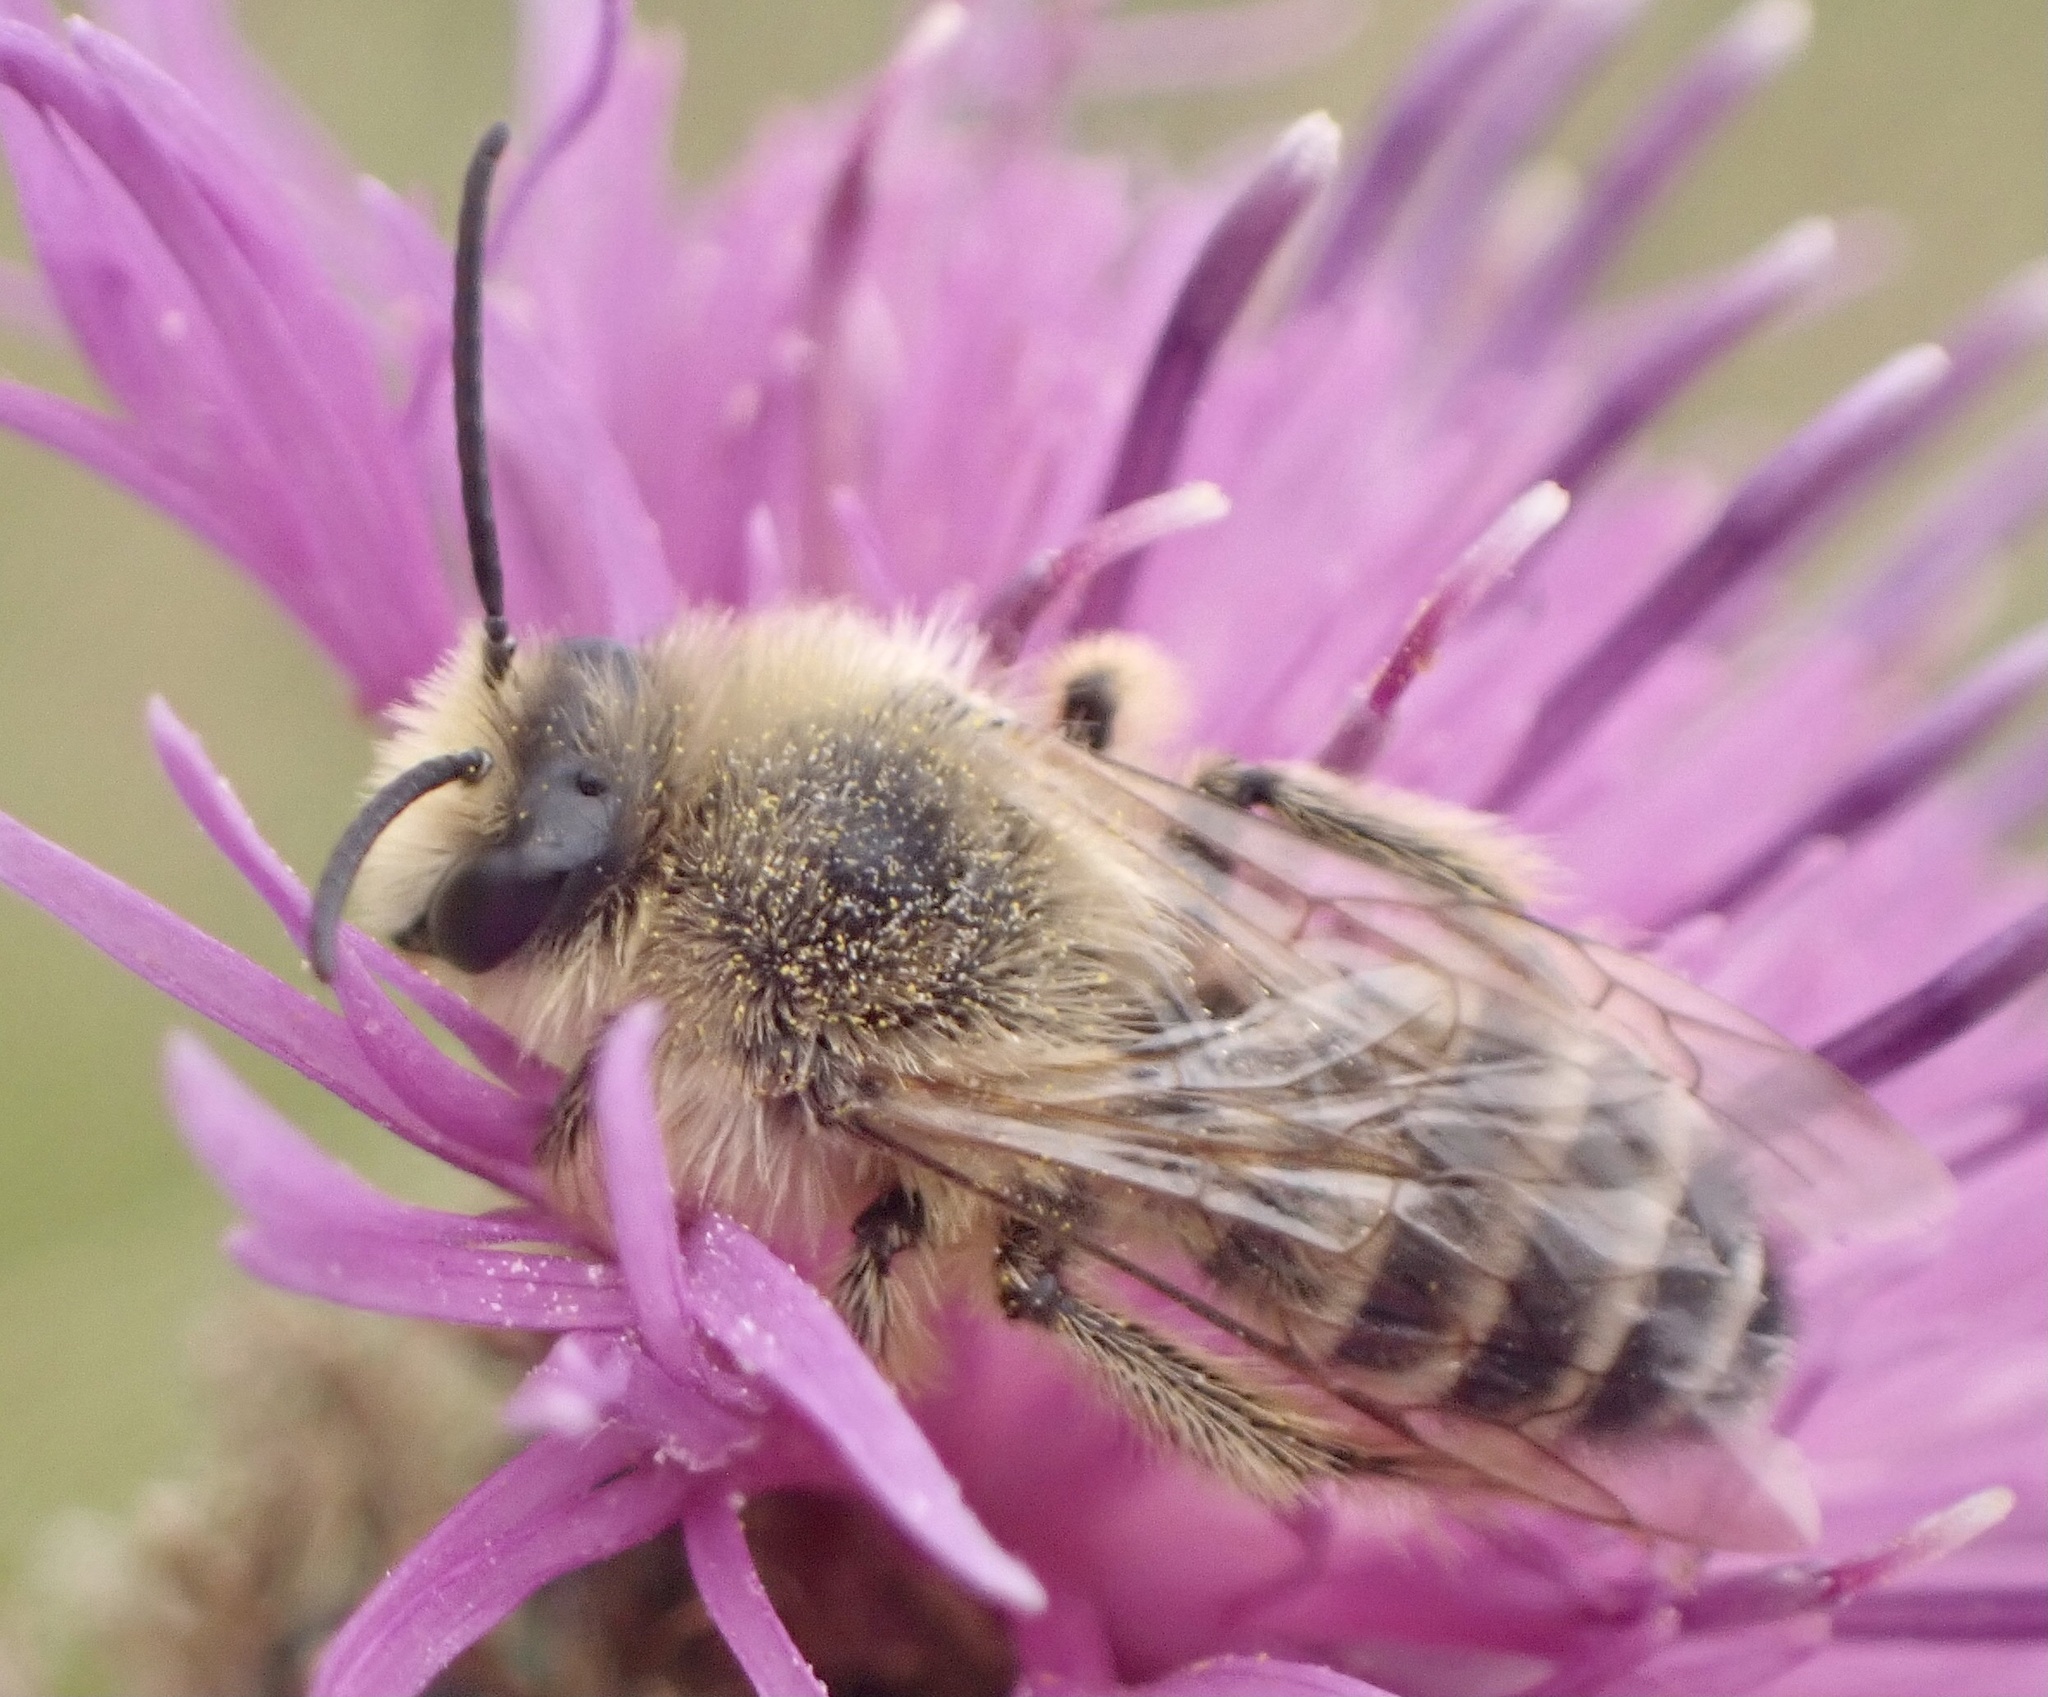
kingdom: Animalia
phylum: Arthropoda
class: Insecta
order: Hymenoptera
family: Melittidae
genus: Dasypoda
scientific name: Dasypoda hirtipes
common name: Pantaloon bee
